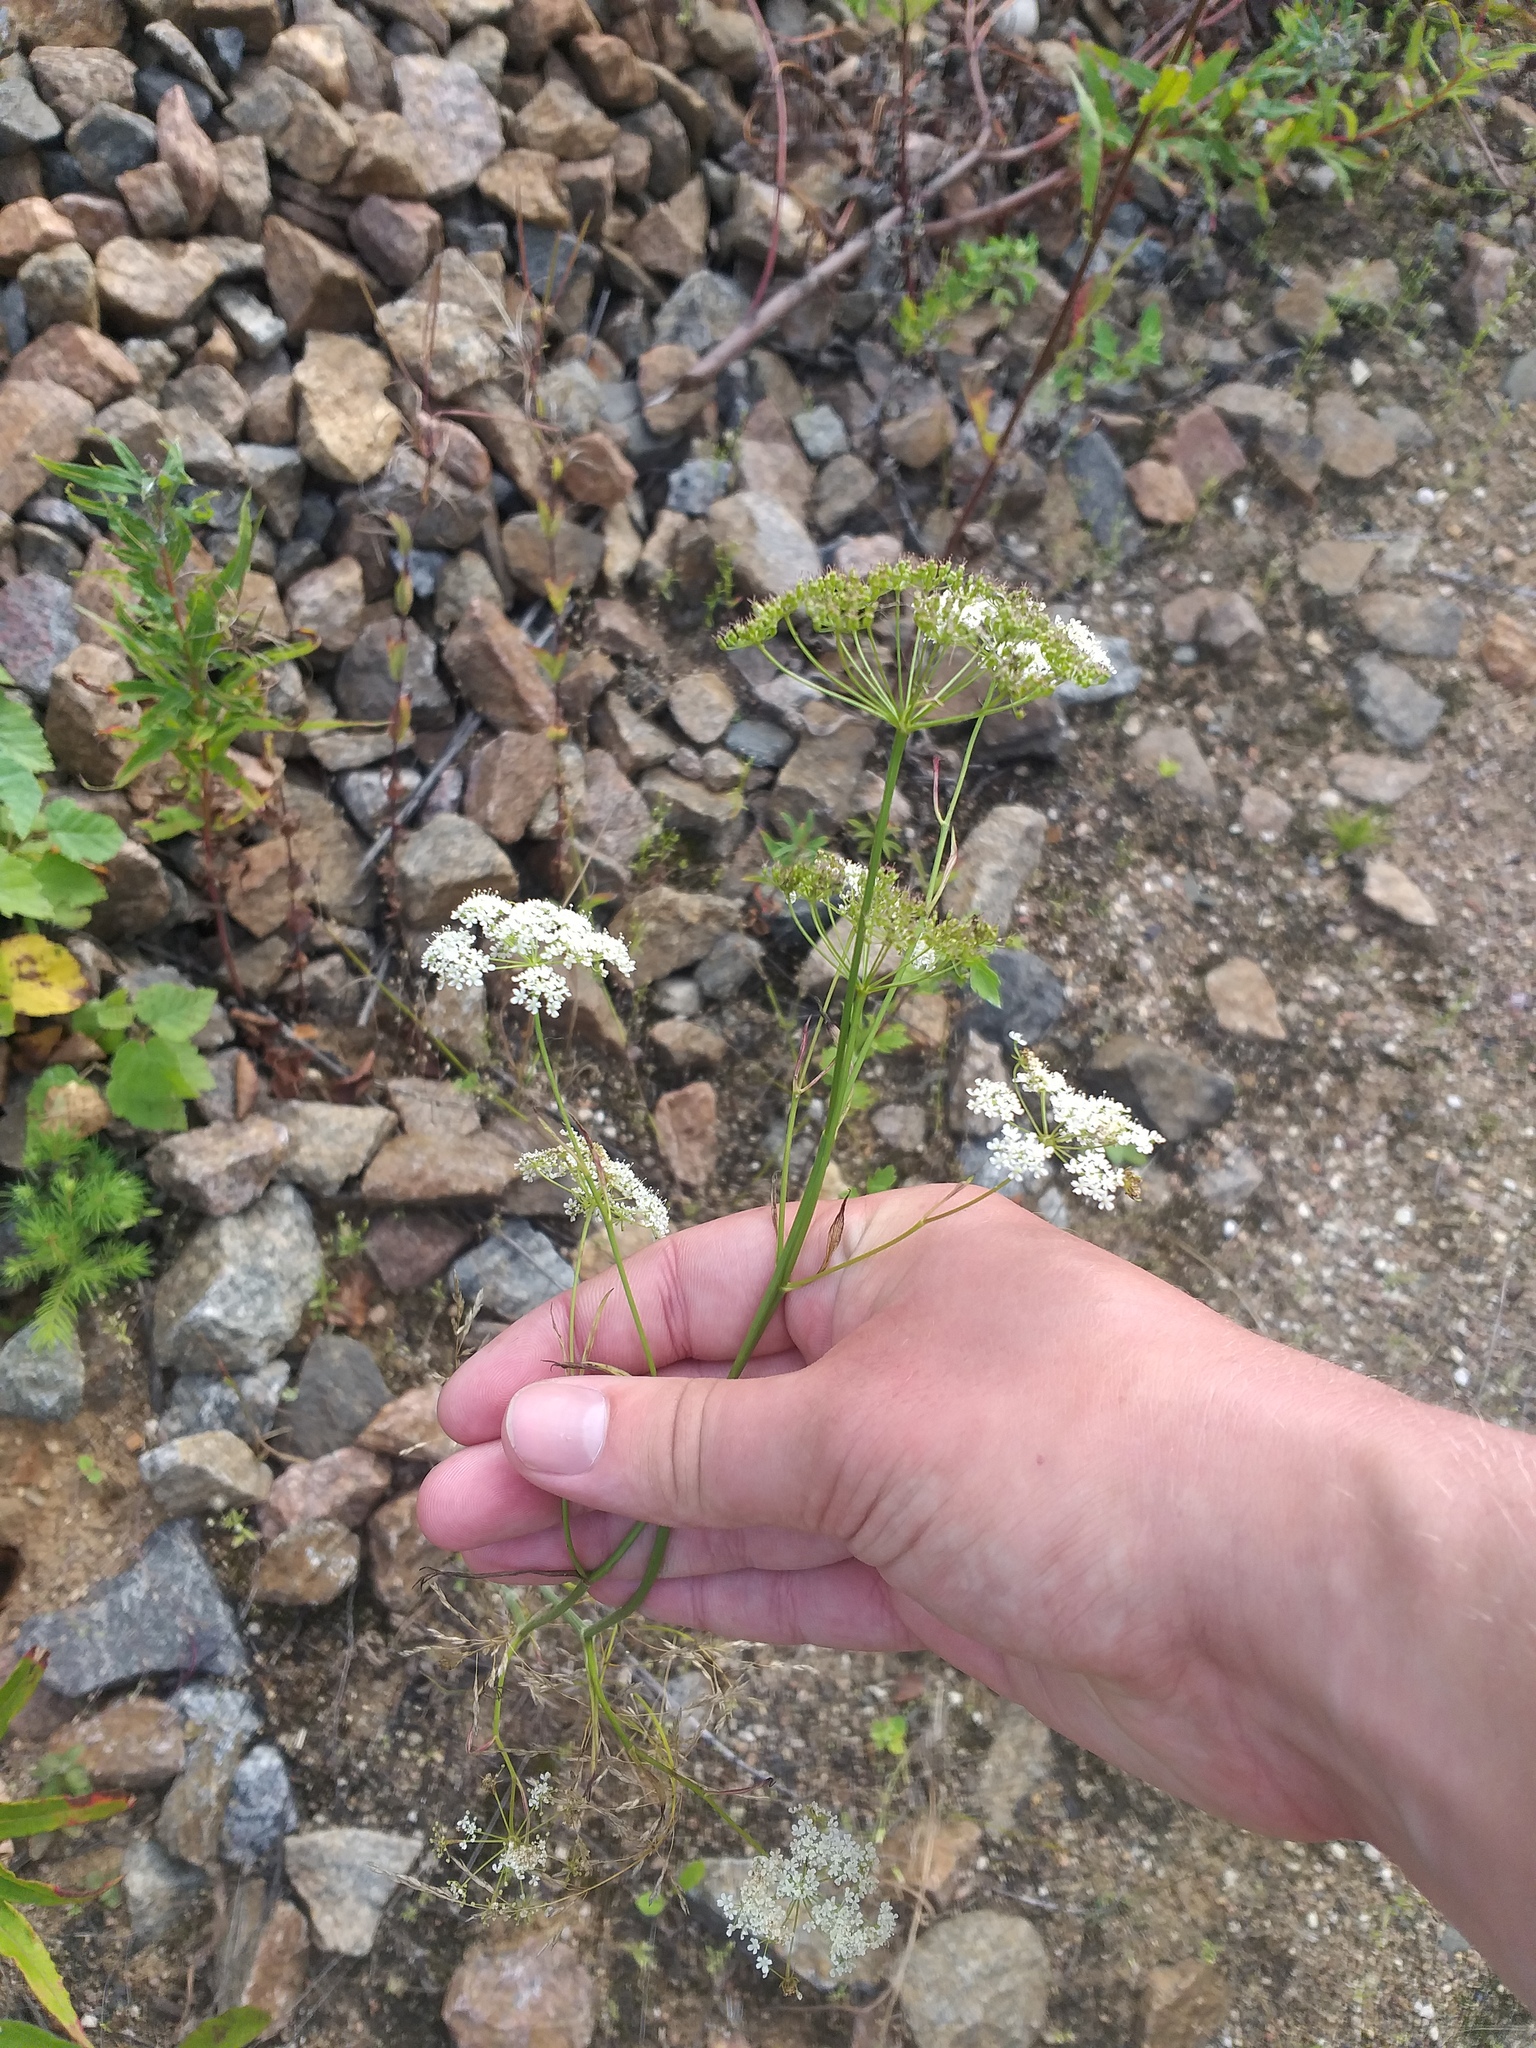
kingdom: Plantae
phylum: Tracheophyta
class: Magnoliopsida
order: Apiales
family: Apiaceae
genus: Pimpinella
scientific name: Pimpinella saxifraga
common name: Burnet-saxifrage
